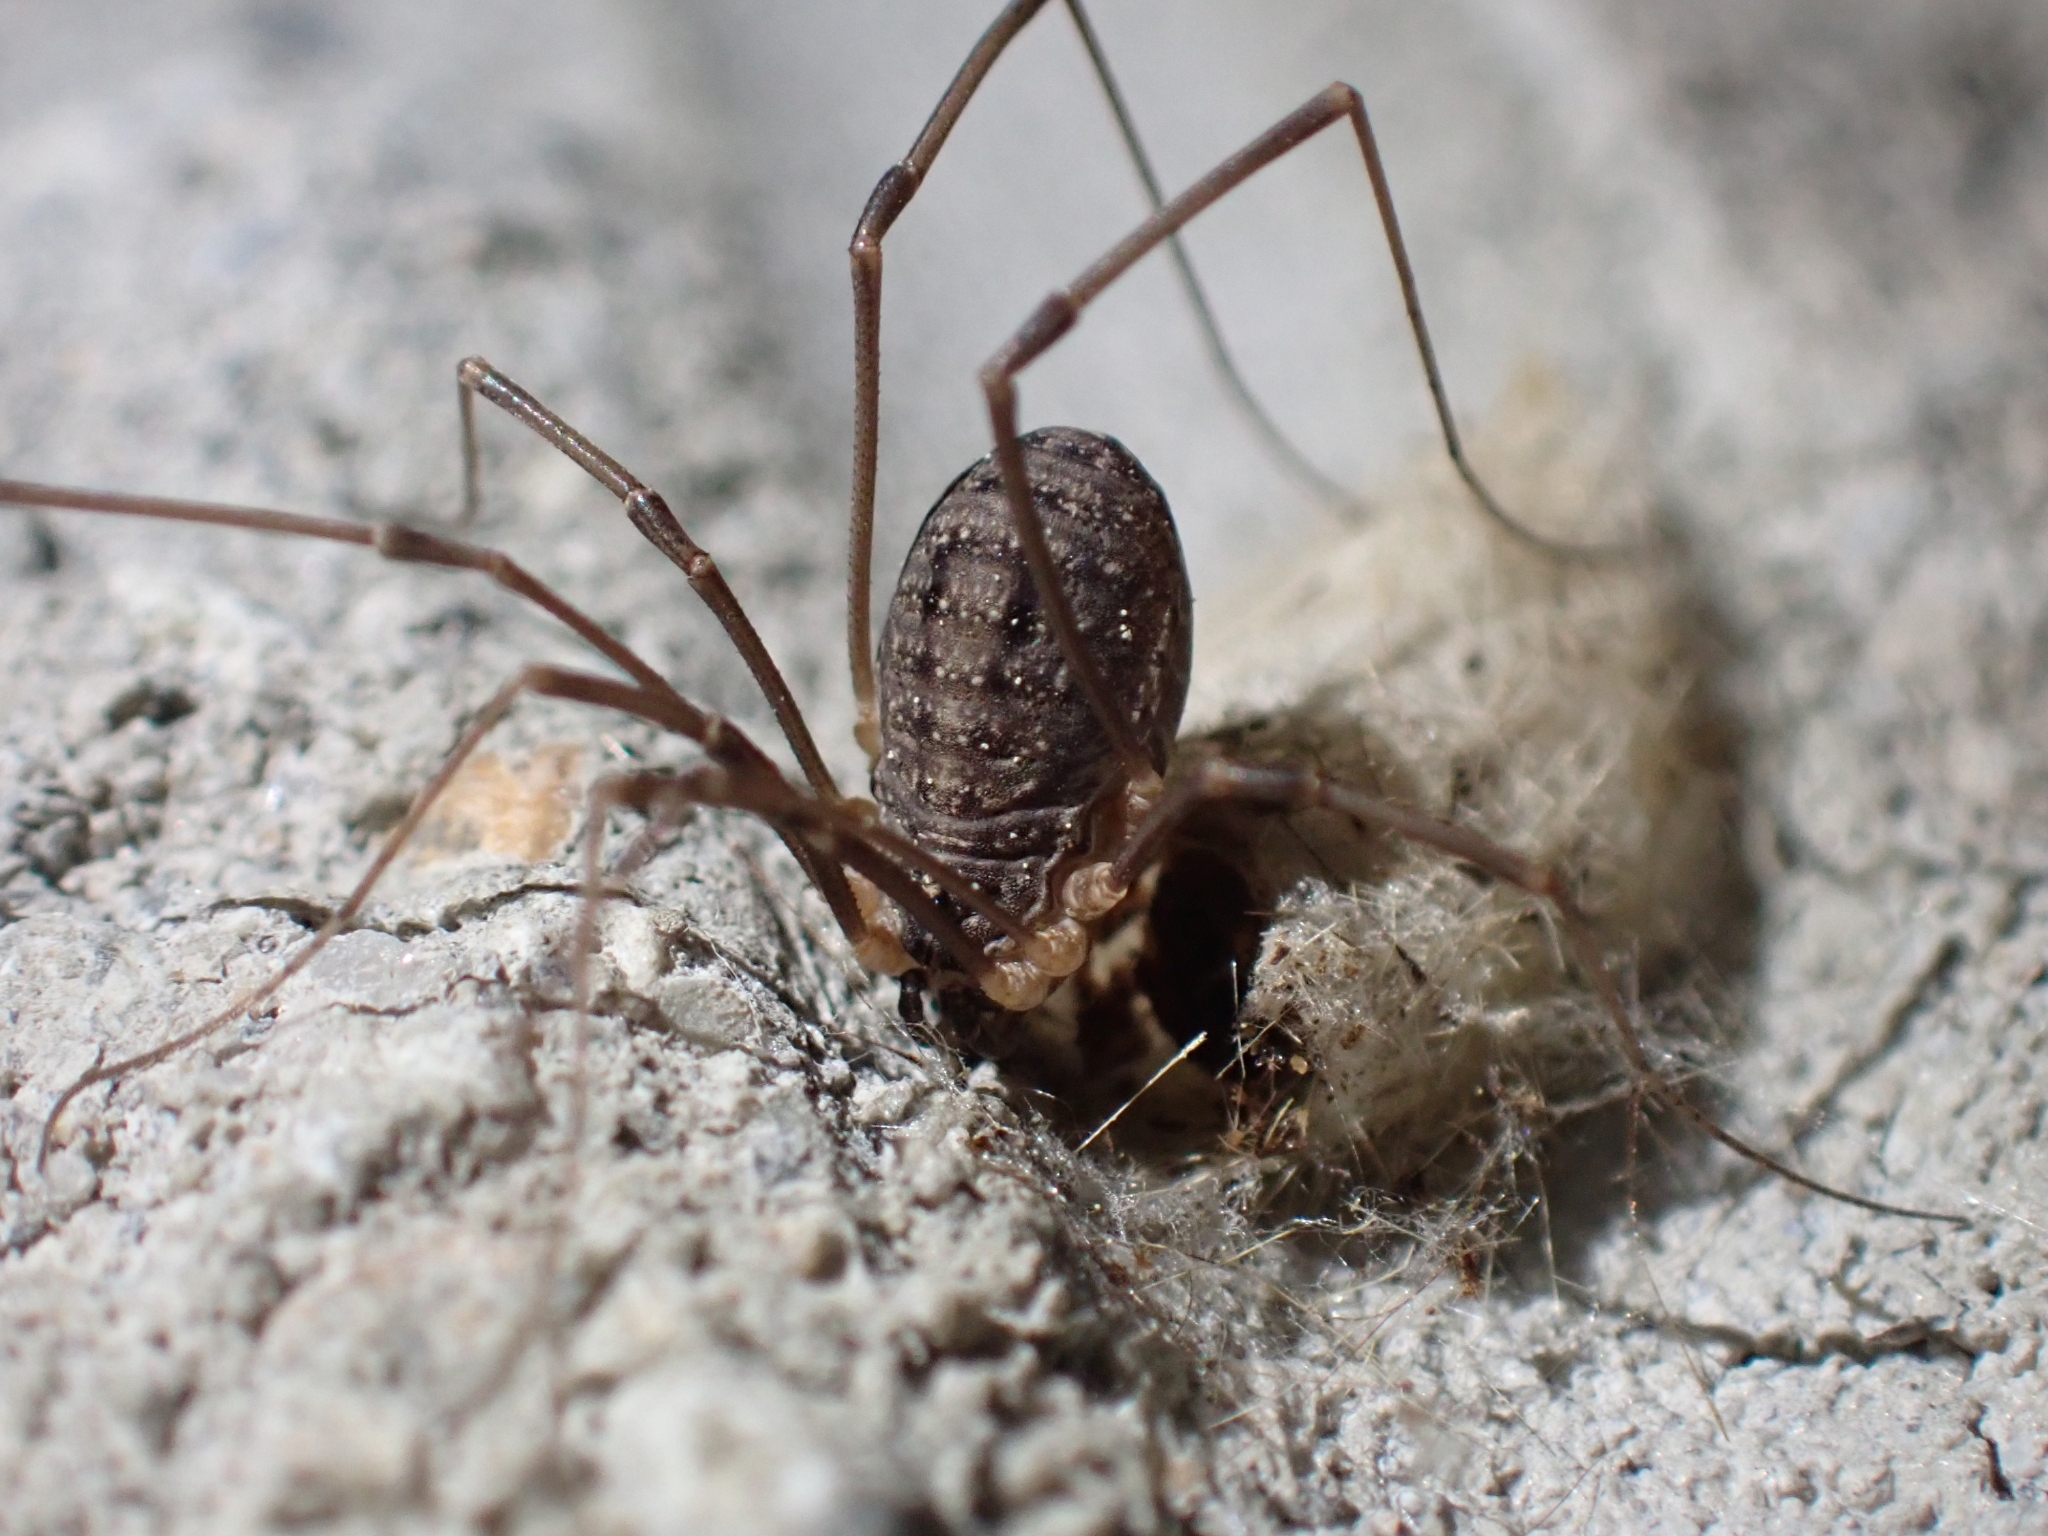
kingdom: Animalia
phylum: Arthropoda
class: Arachnida
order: Opiliones
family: Sclerosomatidae
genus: Togwoteeus
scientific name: Togwoteeus biceps
